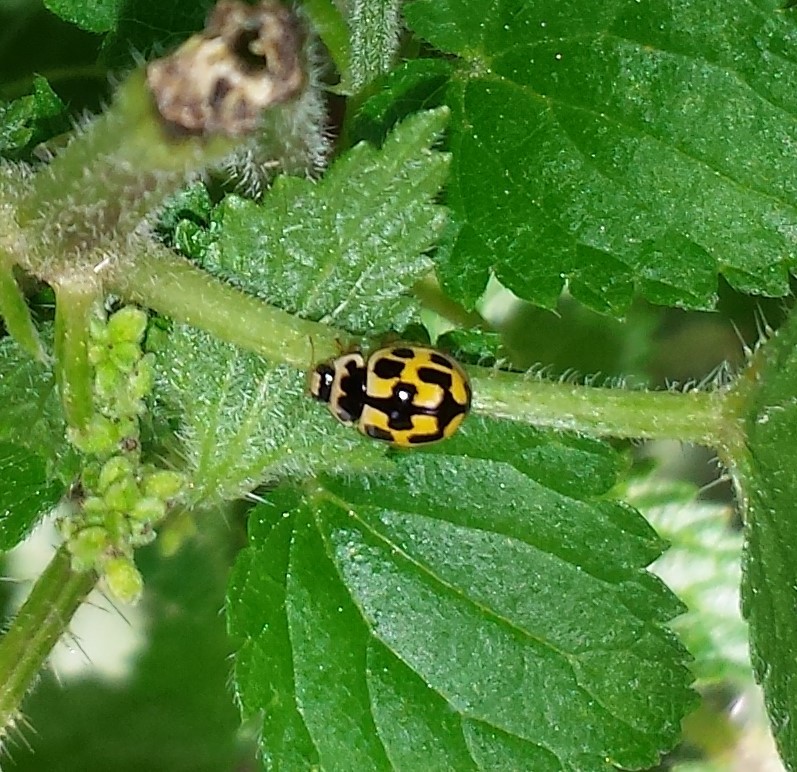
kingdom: Animalia
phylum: Arthropoda
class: Insecta
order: Coleoptera
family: Coccinellidae
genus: Propylaea
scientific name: Propylaea quatuordecimpunctata
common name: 14-spotted ladybird beetle
